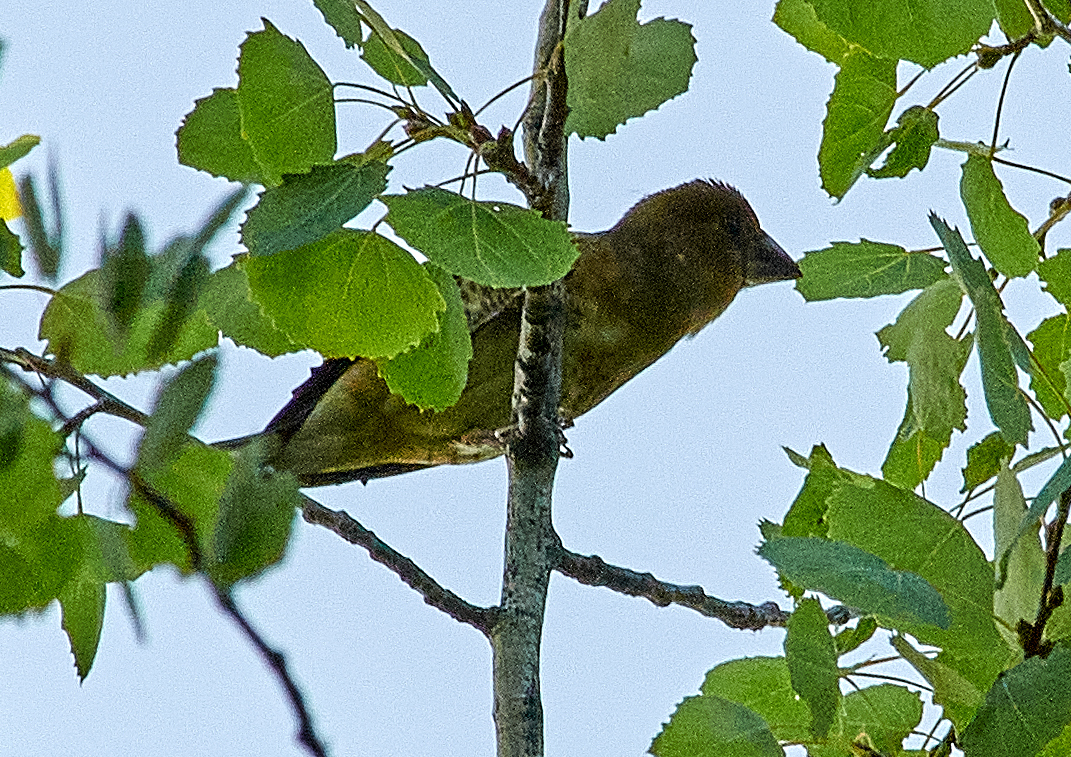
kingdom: Animalia
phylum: Chordata
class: Aves
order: Passeriformes
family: Fringillidae
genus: Coccothraustes
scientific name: Coccothraustes coccothraustes
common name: Hawfinch
